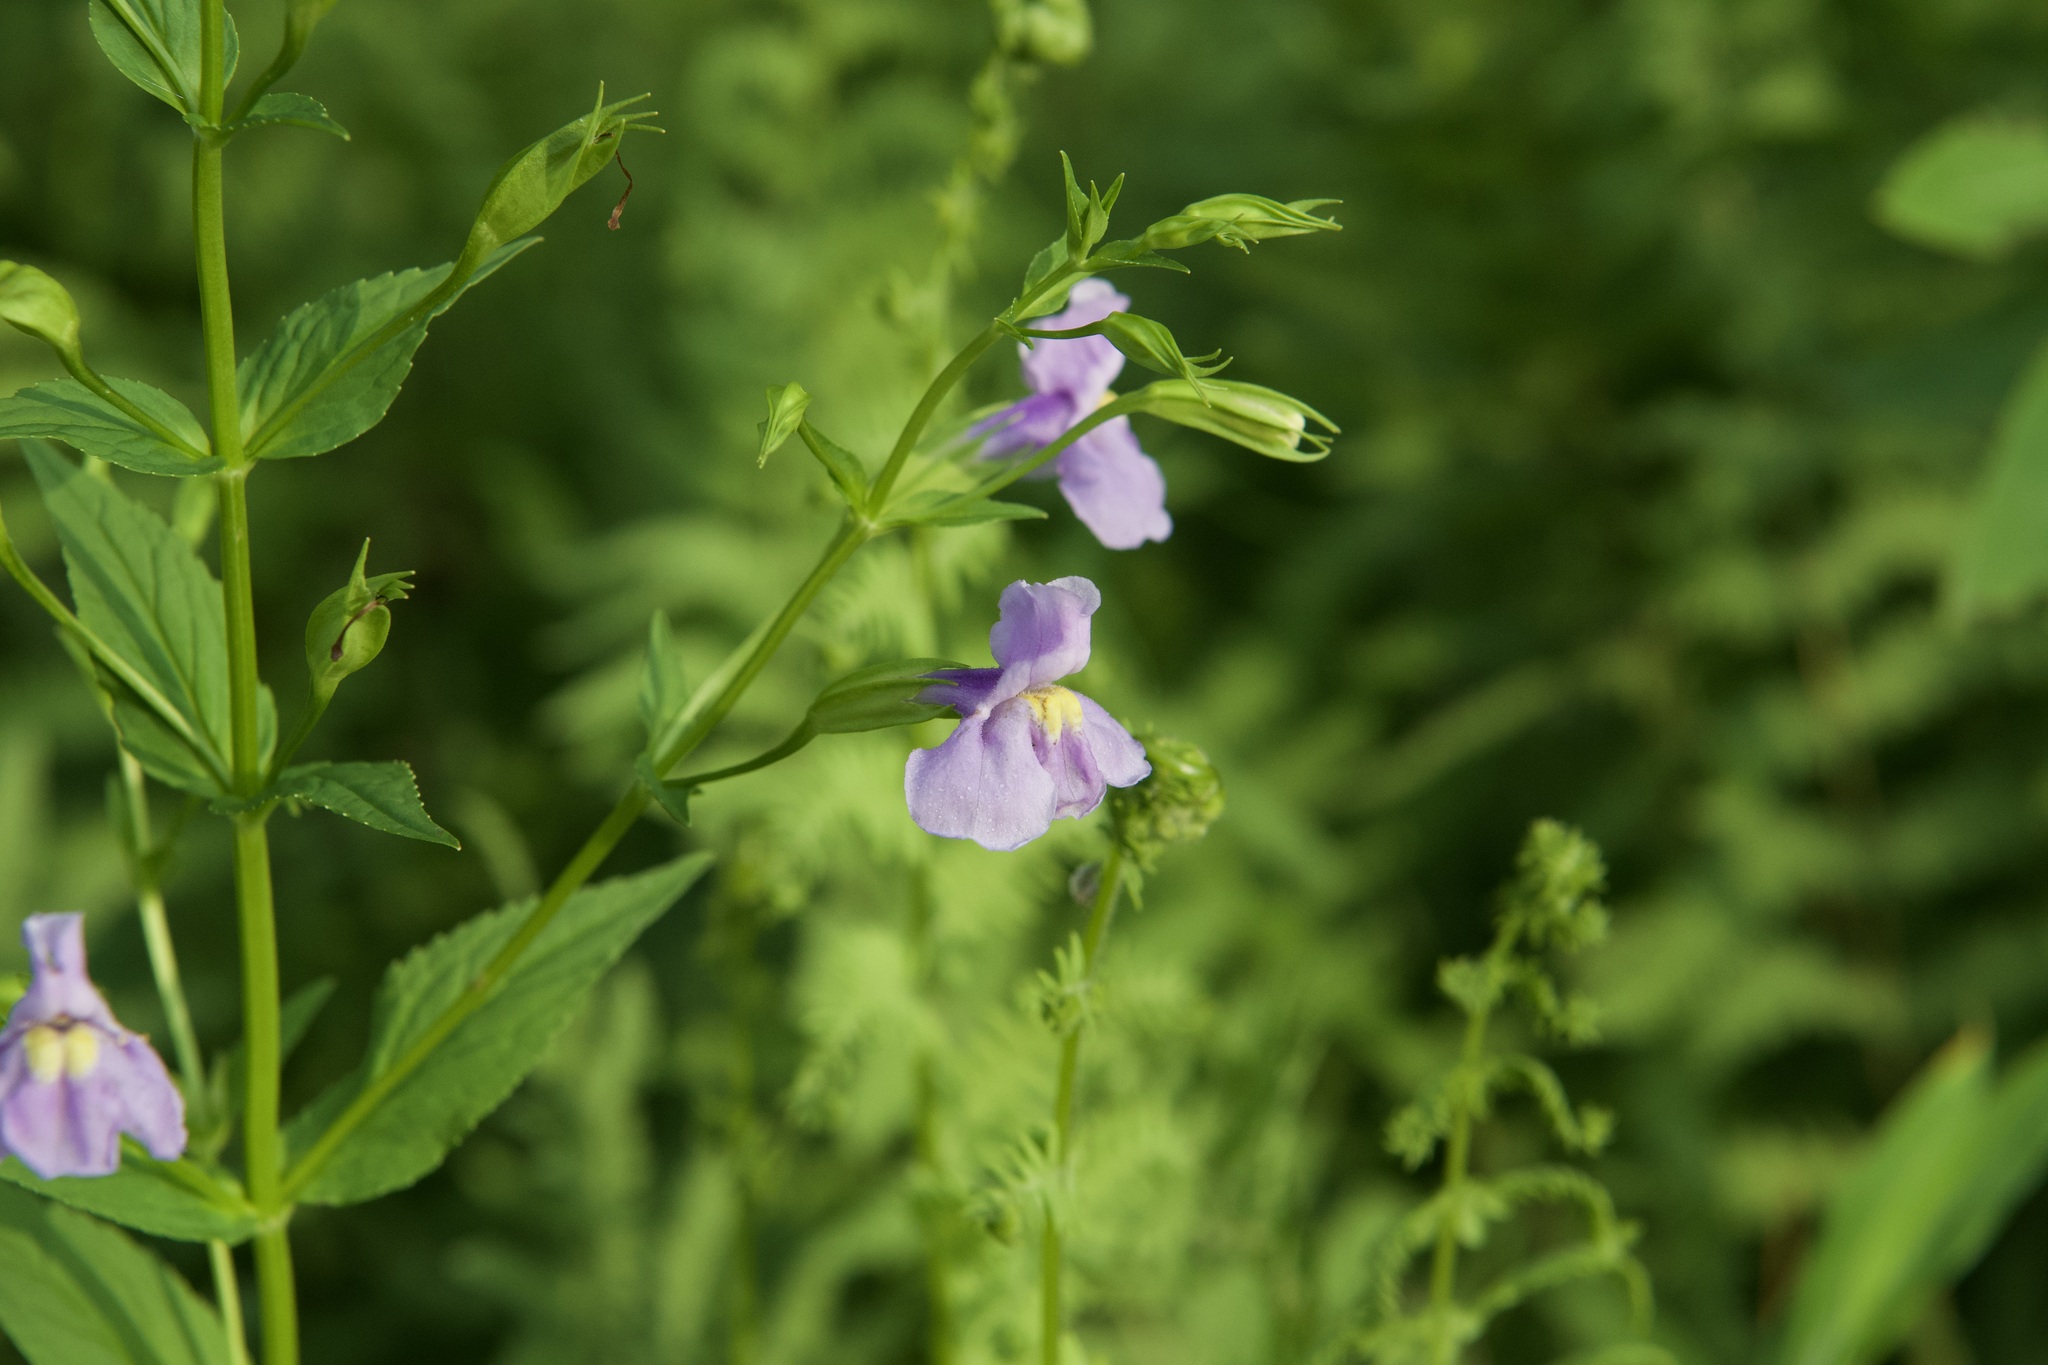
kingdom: Plantae
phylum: Tracheophyta
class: Magnoliopsida
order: Lamiales
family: Phrymaceae
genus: Mimulus
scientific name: Mimulus ringens
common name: Allegheny monkeyflower
